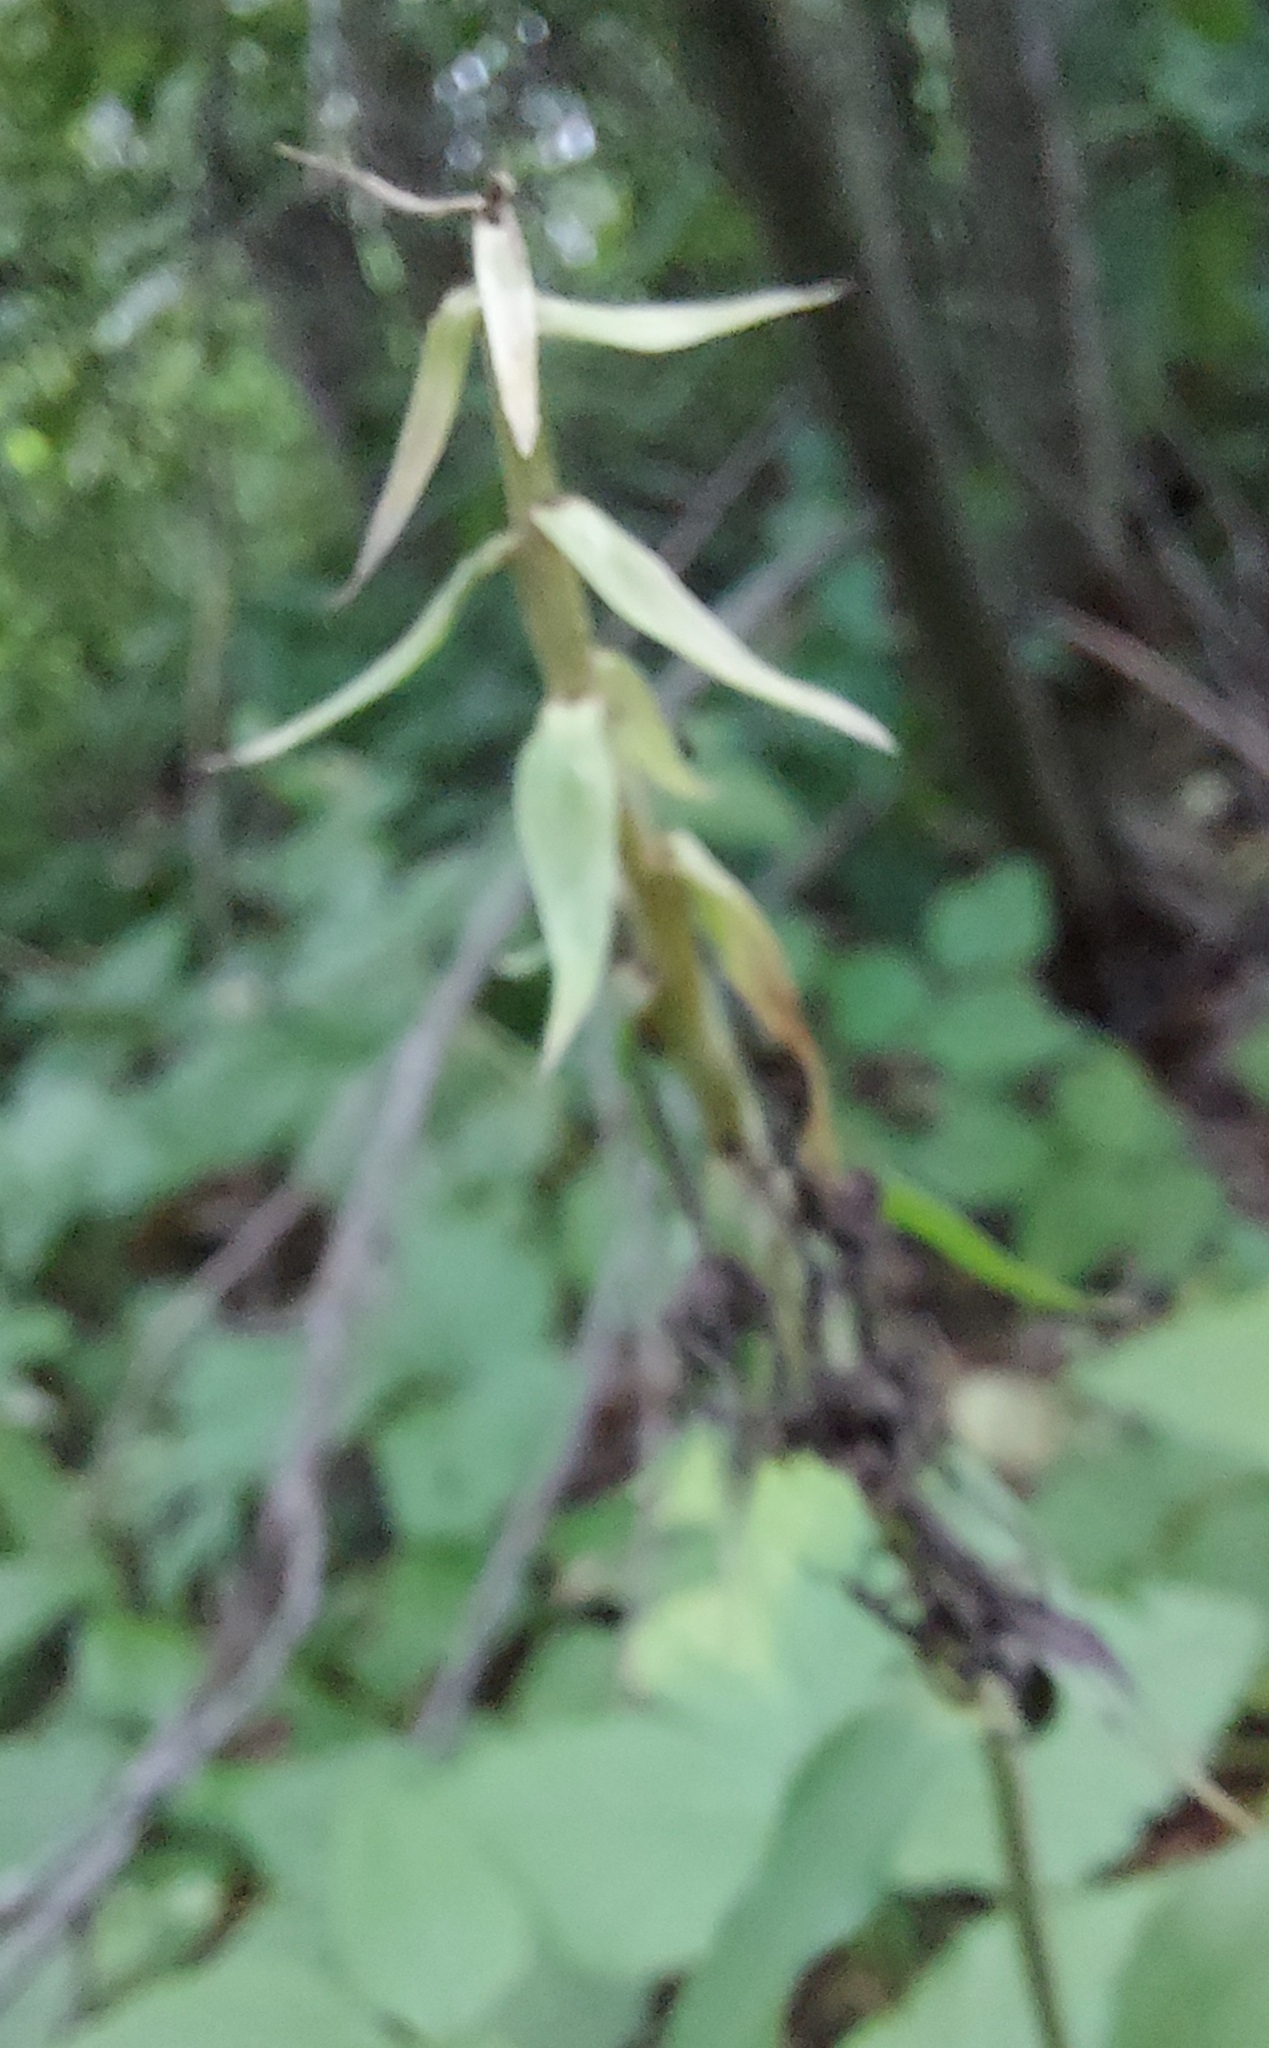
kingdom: Plantae
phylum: Tracheophyta
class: Liliopsida
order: Asparagales
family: Orchidaceae
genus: Epipactis
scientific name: Epipactis helleborine
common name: Broad-leaved helleborine
